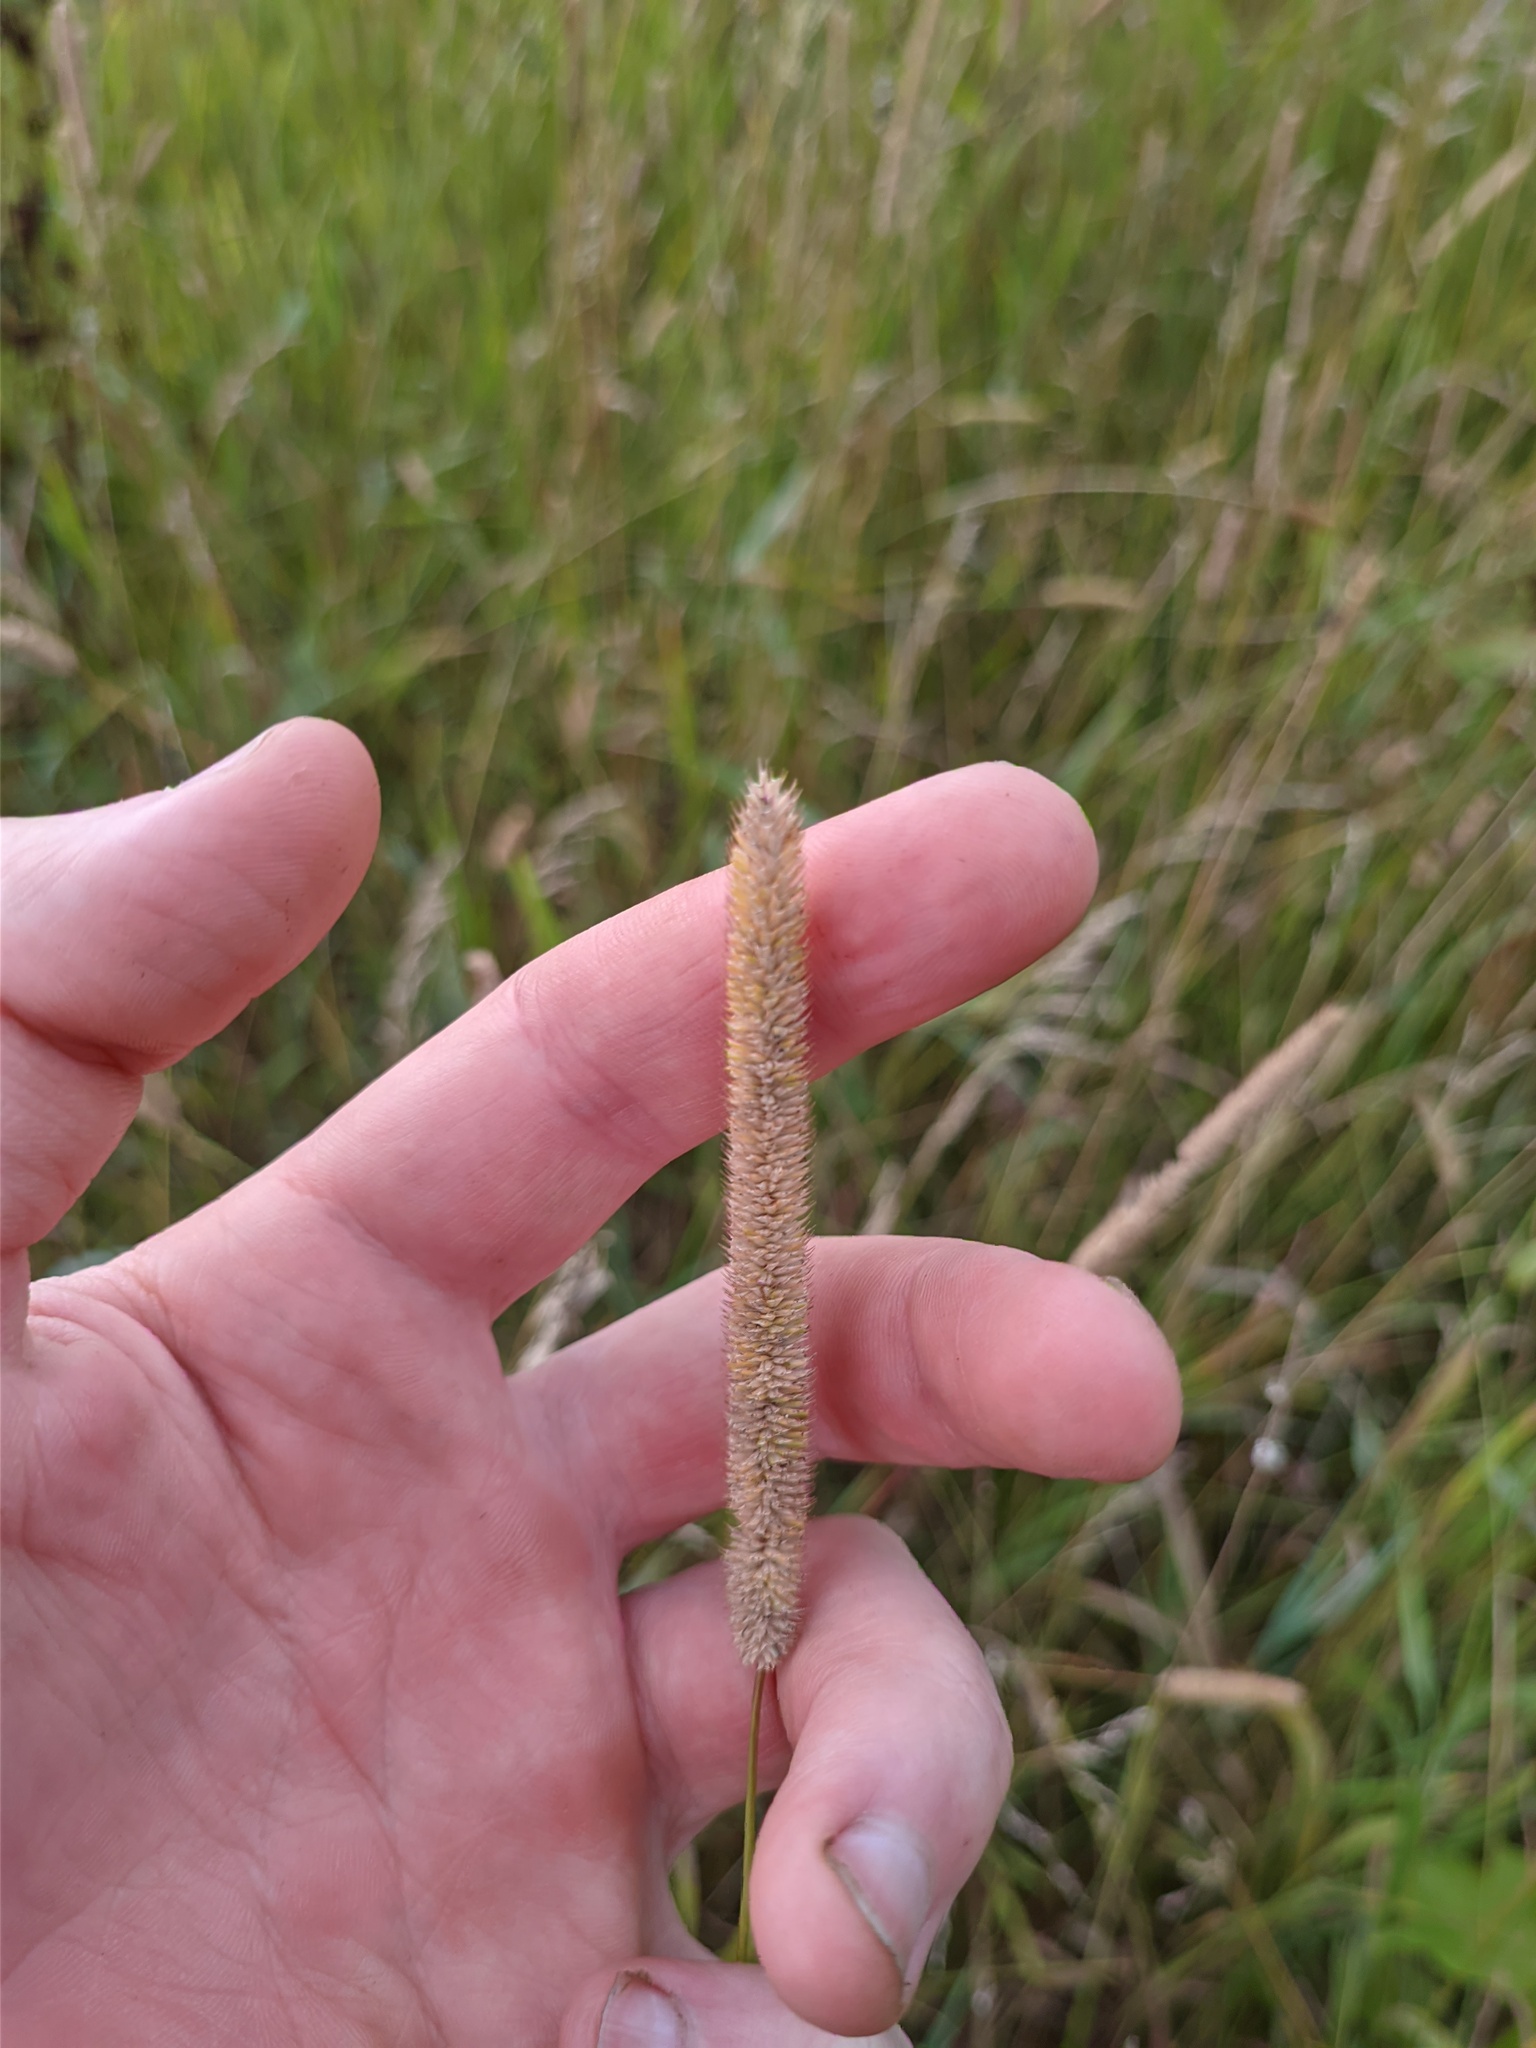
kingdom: Plantae
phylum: Tracheophyta
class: Liliopsida
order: Poales
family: Poaceae
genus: Phleum
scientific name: Phleum pratense
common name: Timothy grass
